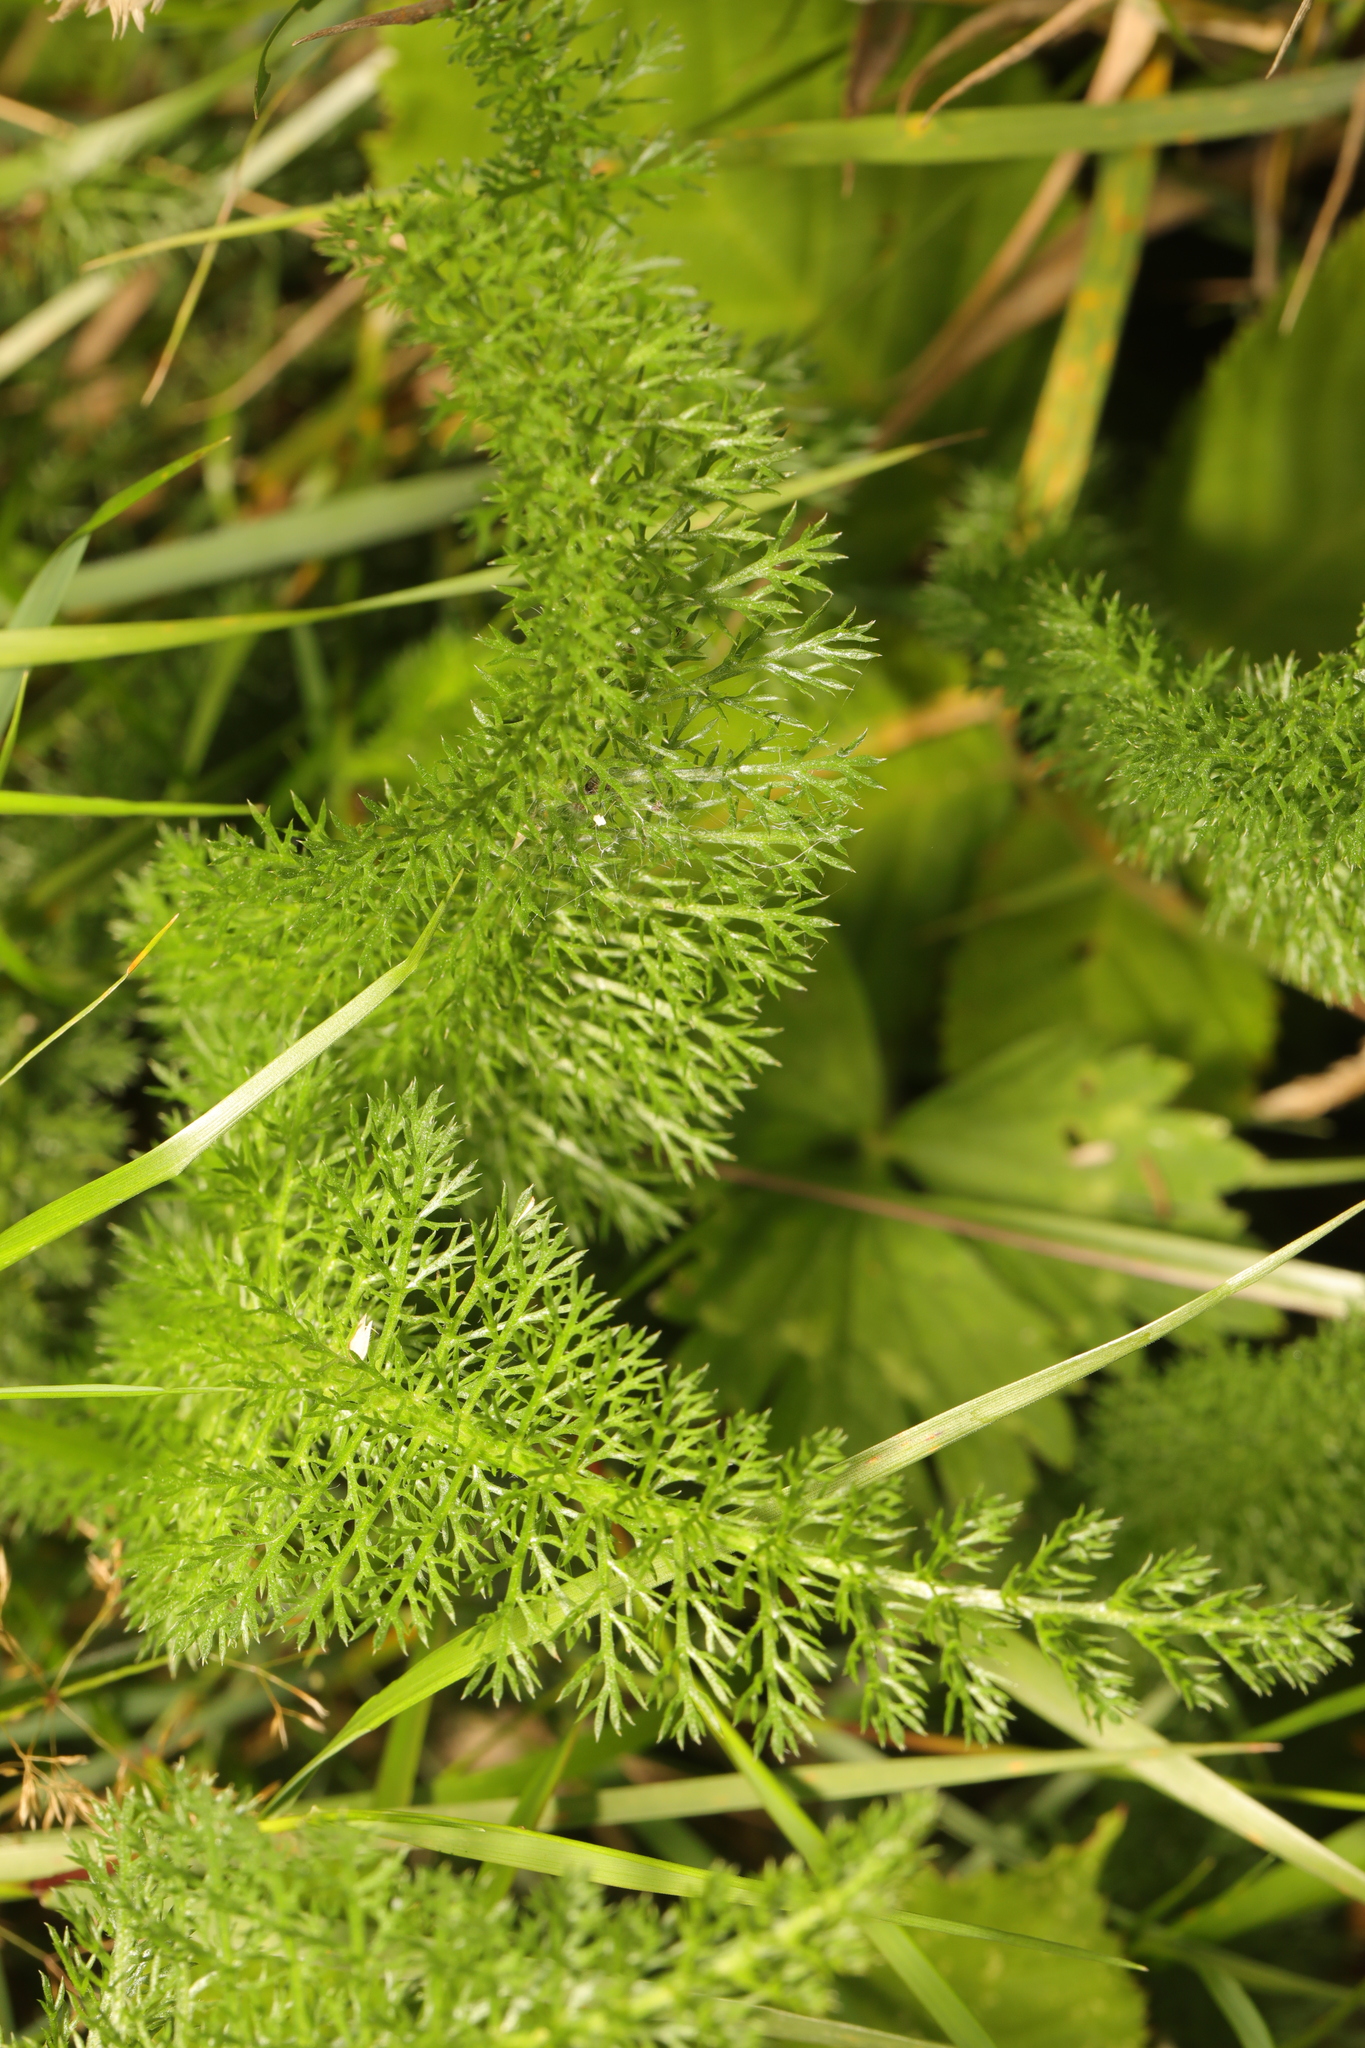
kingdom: Plantae
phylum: Tracheophyta
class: Magnoliopsida
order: Asterales
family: Asteraceae
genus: Achillea
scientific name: Achillea millefolium
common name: Yarrow
